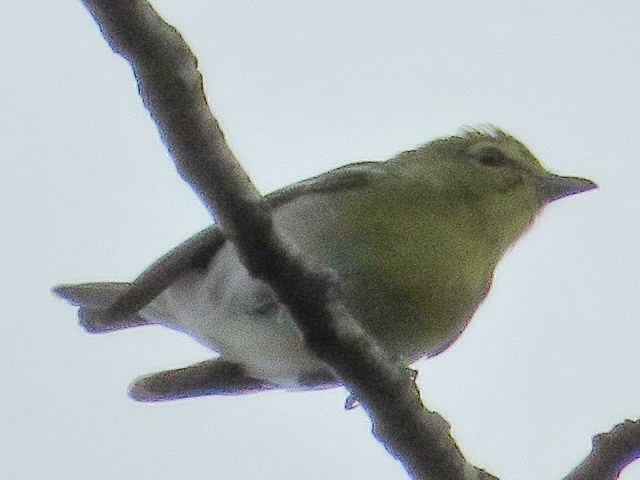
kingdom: Animalia
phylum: Chordata
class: Aves
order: Passeriformes
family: Vireonidae
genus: Vireo
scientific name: Vireo flavifrons
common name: Yellow-throated vireo
